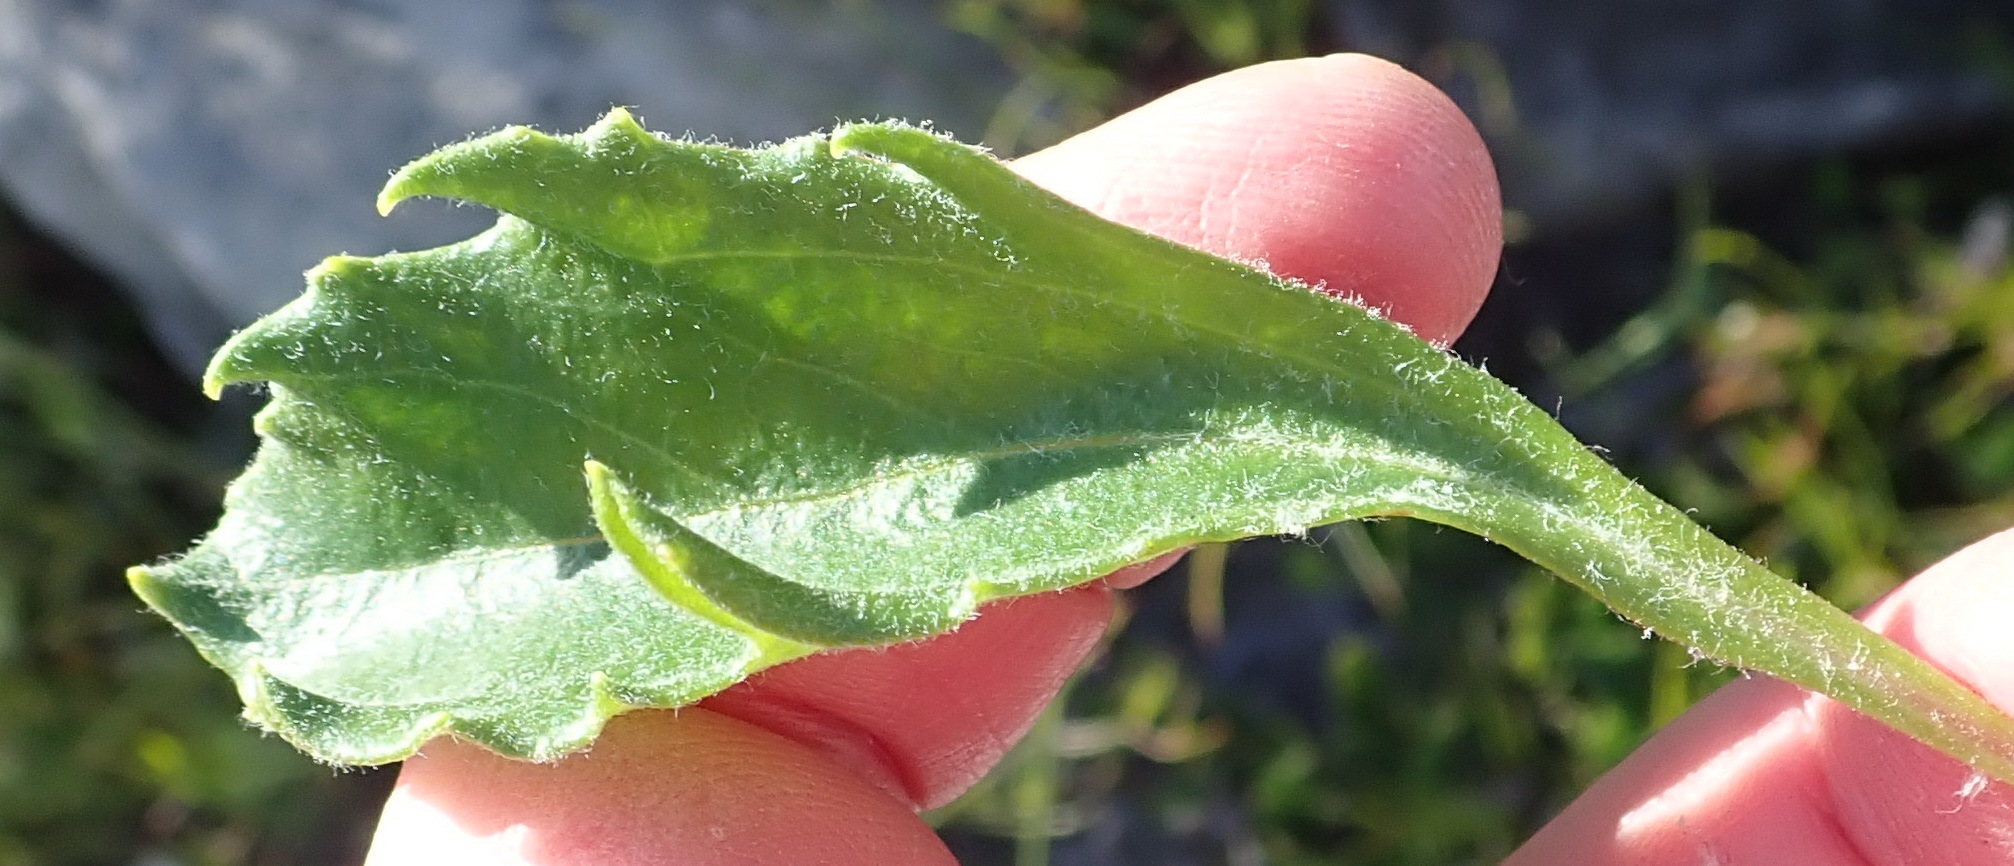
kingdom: Plantae
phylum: Tracheophyta
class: Magnoliopsida
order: Asterales
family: Asteraceae
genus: Mairia
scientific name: Mairia purpurata
